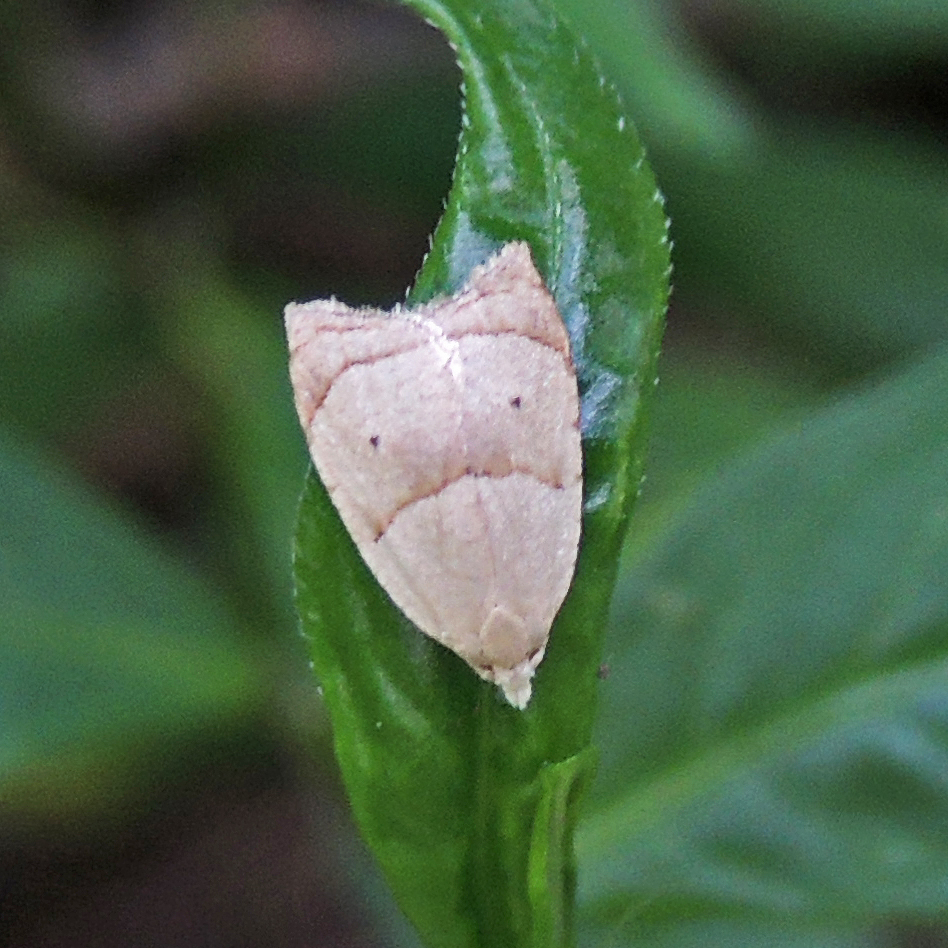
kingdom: Animalia
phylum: Arthropoda
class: Insecta
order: Lepidoptera
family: Tortricidae
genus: Coelostathma
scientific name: Coelostathma discopunctana
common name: Batman moth
